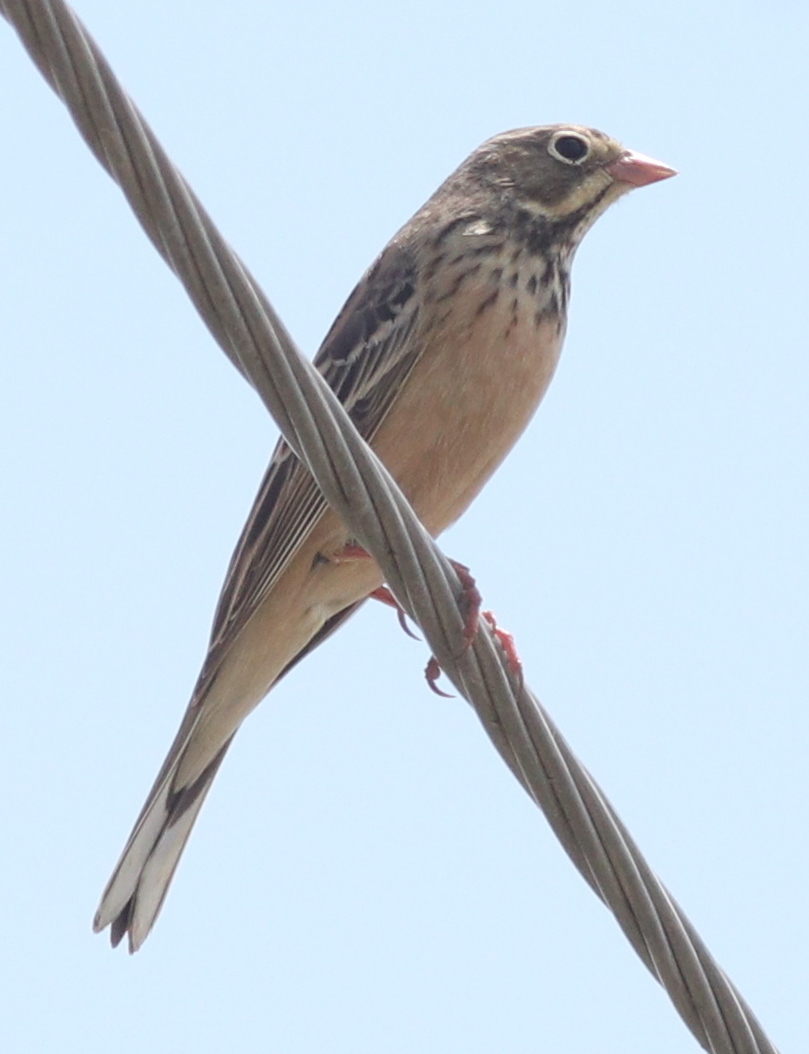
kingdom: Animalia
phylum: Chordata
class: Aves
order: Passeriformes
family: Emberizidae
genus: Emberiza
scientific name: Emberiza hortulana
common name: Ortolan bunting
